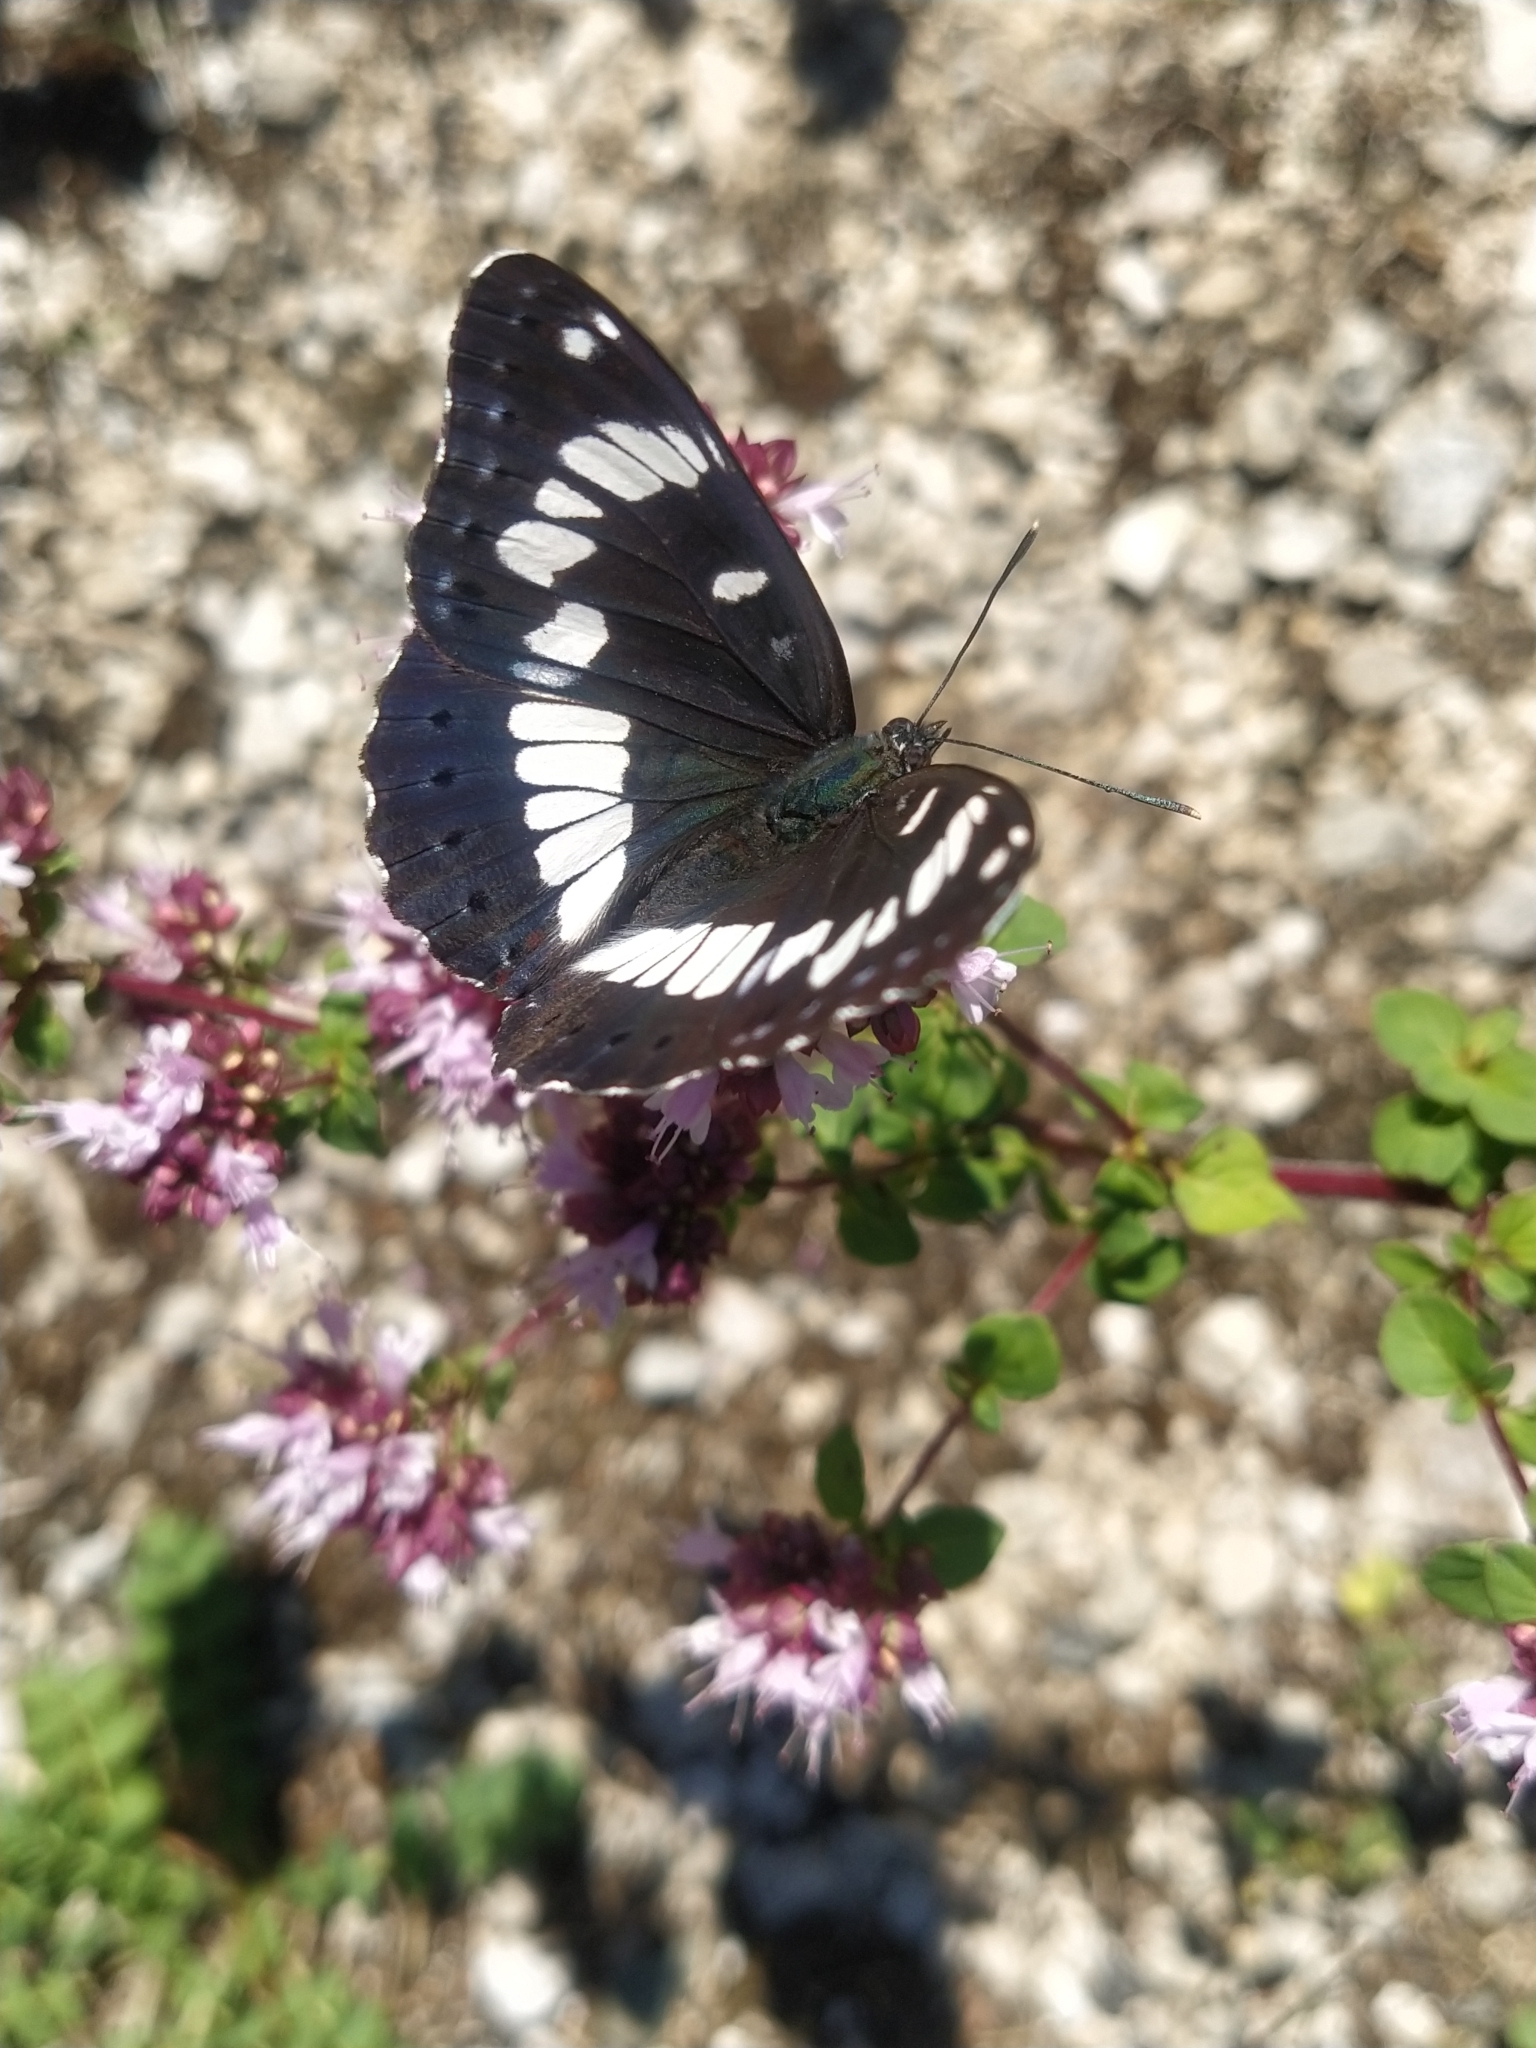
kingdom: Animalia
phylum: Arthropoda
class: Insecta
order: Lepidoptera
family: Nymphalidae
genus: Limenitis
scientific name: Limenitis reducta
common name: Southern white admiral
